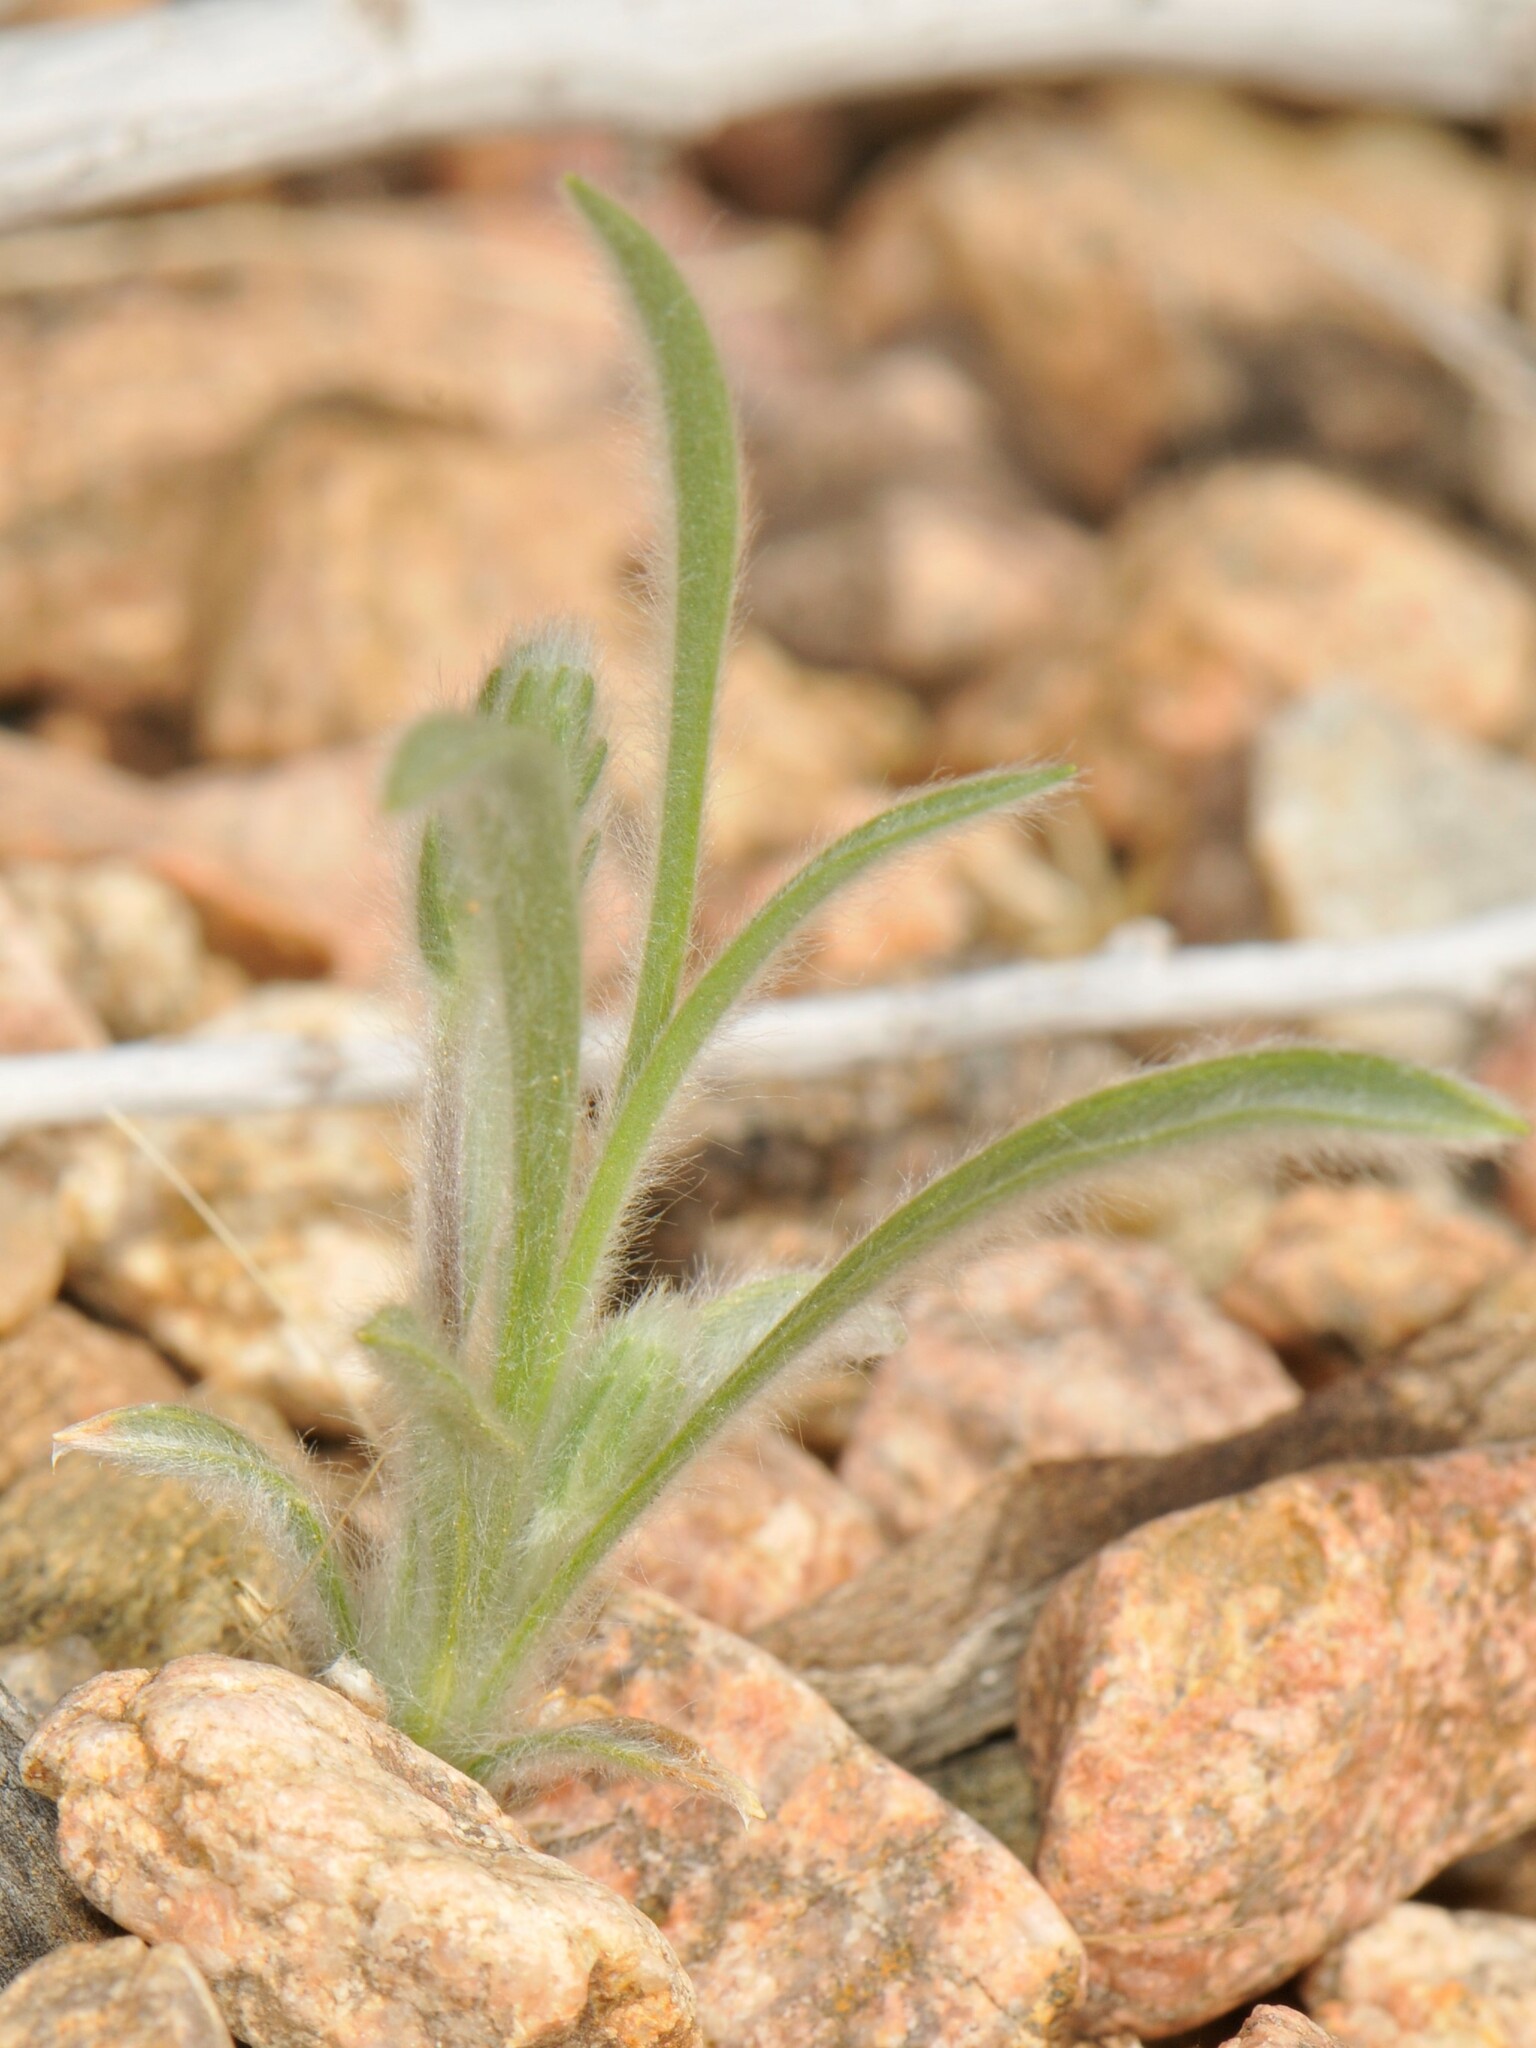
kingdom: Plantae
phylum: Tracheophyta
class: Magnoliopsida
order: Lamiales
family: Plantaginaceae
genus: Plantago
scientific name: Plantago patagonica
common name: Patagonia indian-wheat
